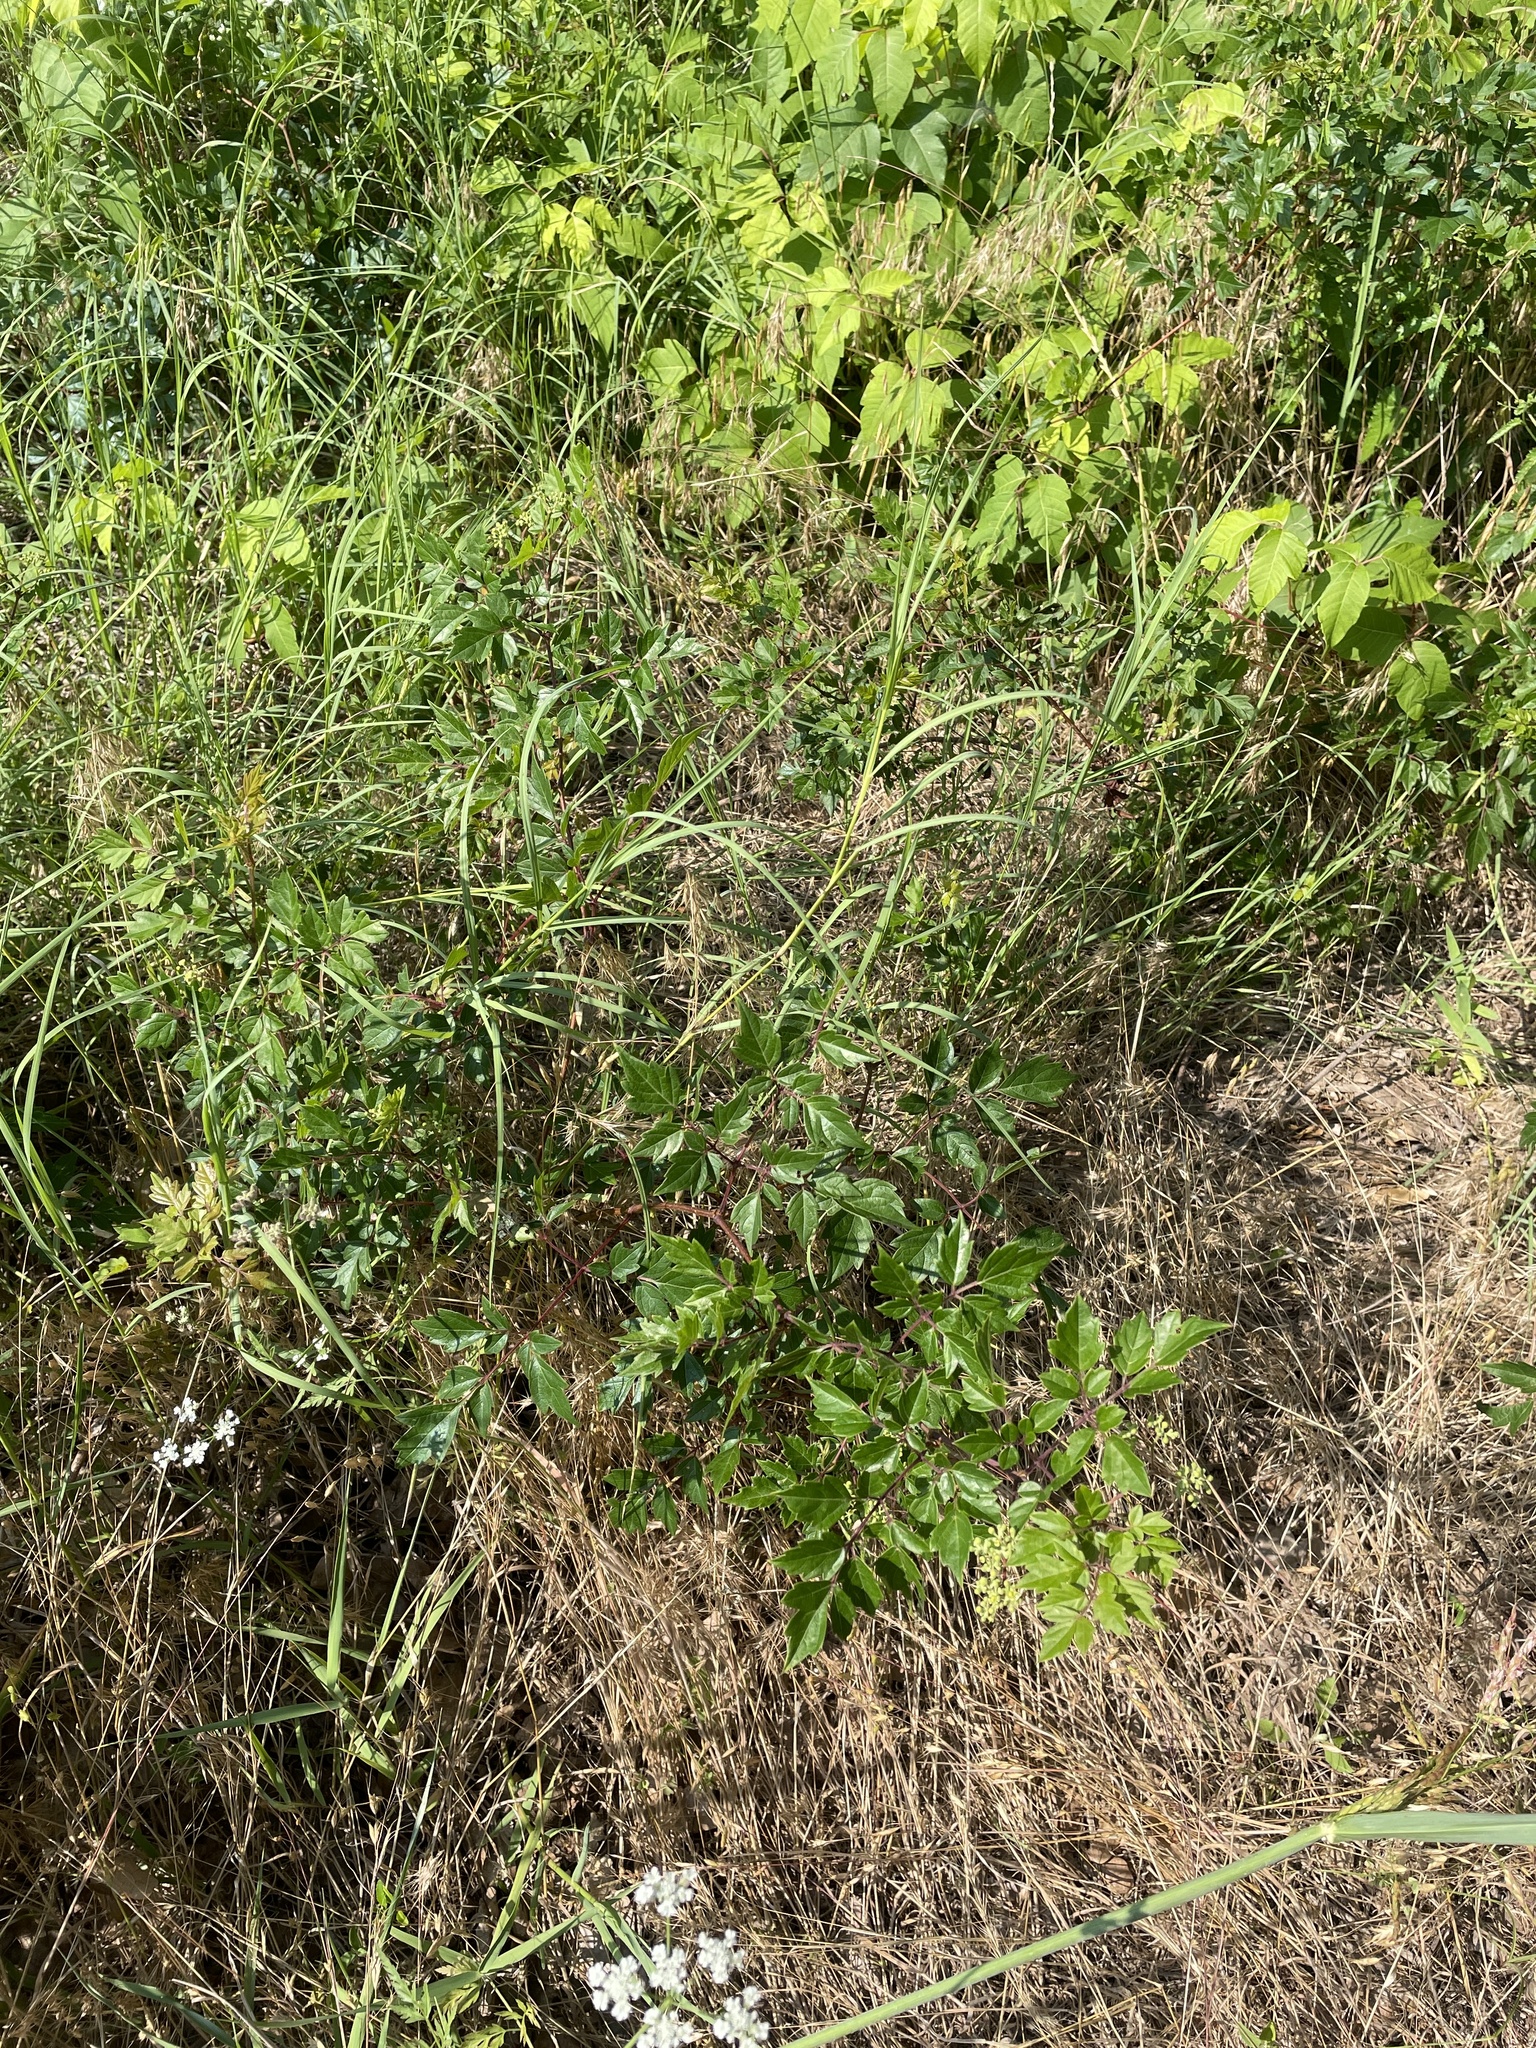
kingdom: Plantae
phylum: Tracheophyta
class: Magnoliopsida
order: Vitales
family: Vitaceae
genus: Nekemias
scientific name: Nekemias arborea
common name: Peppervine
